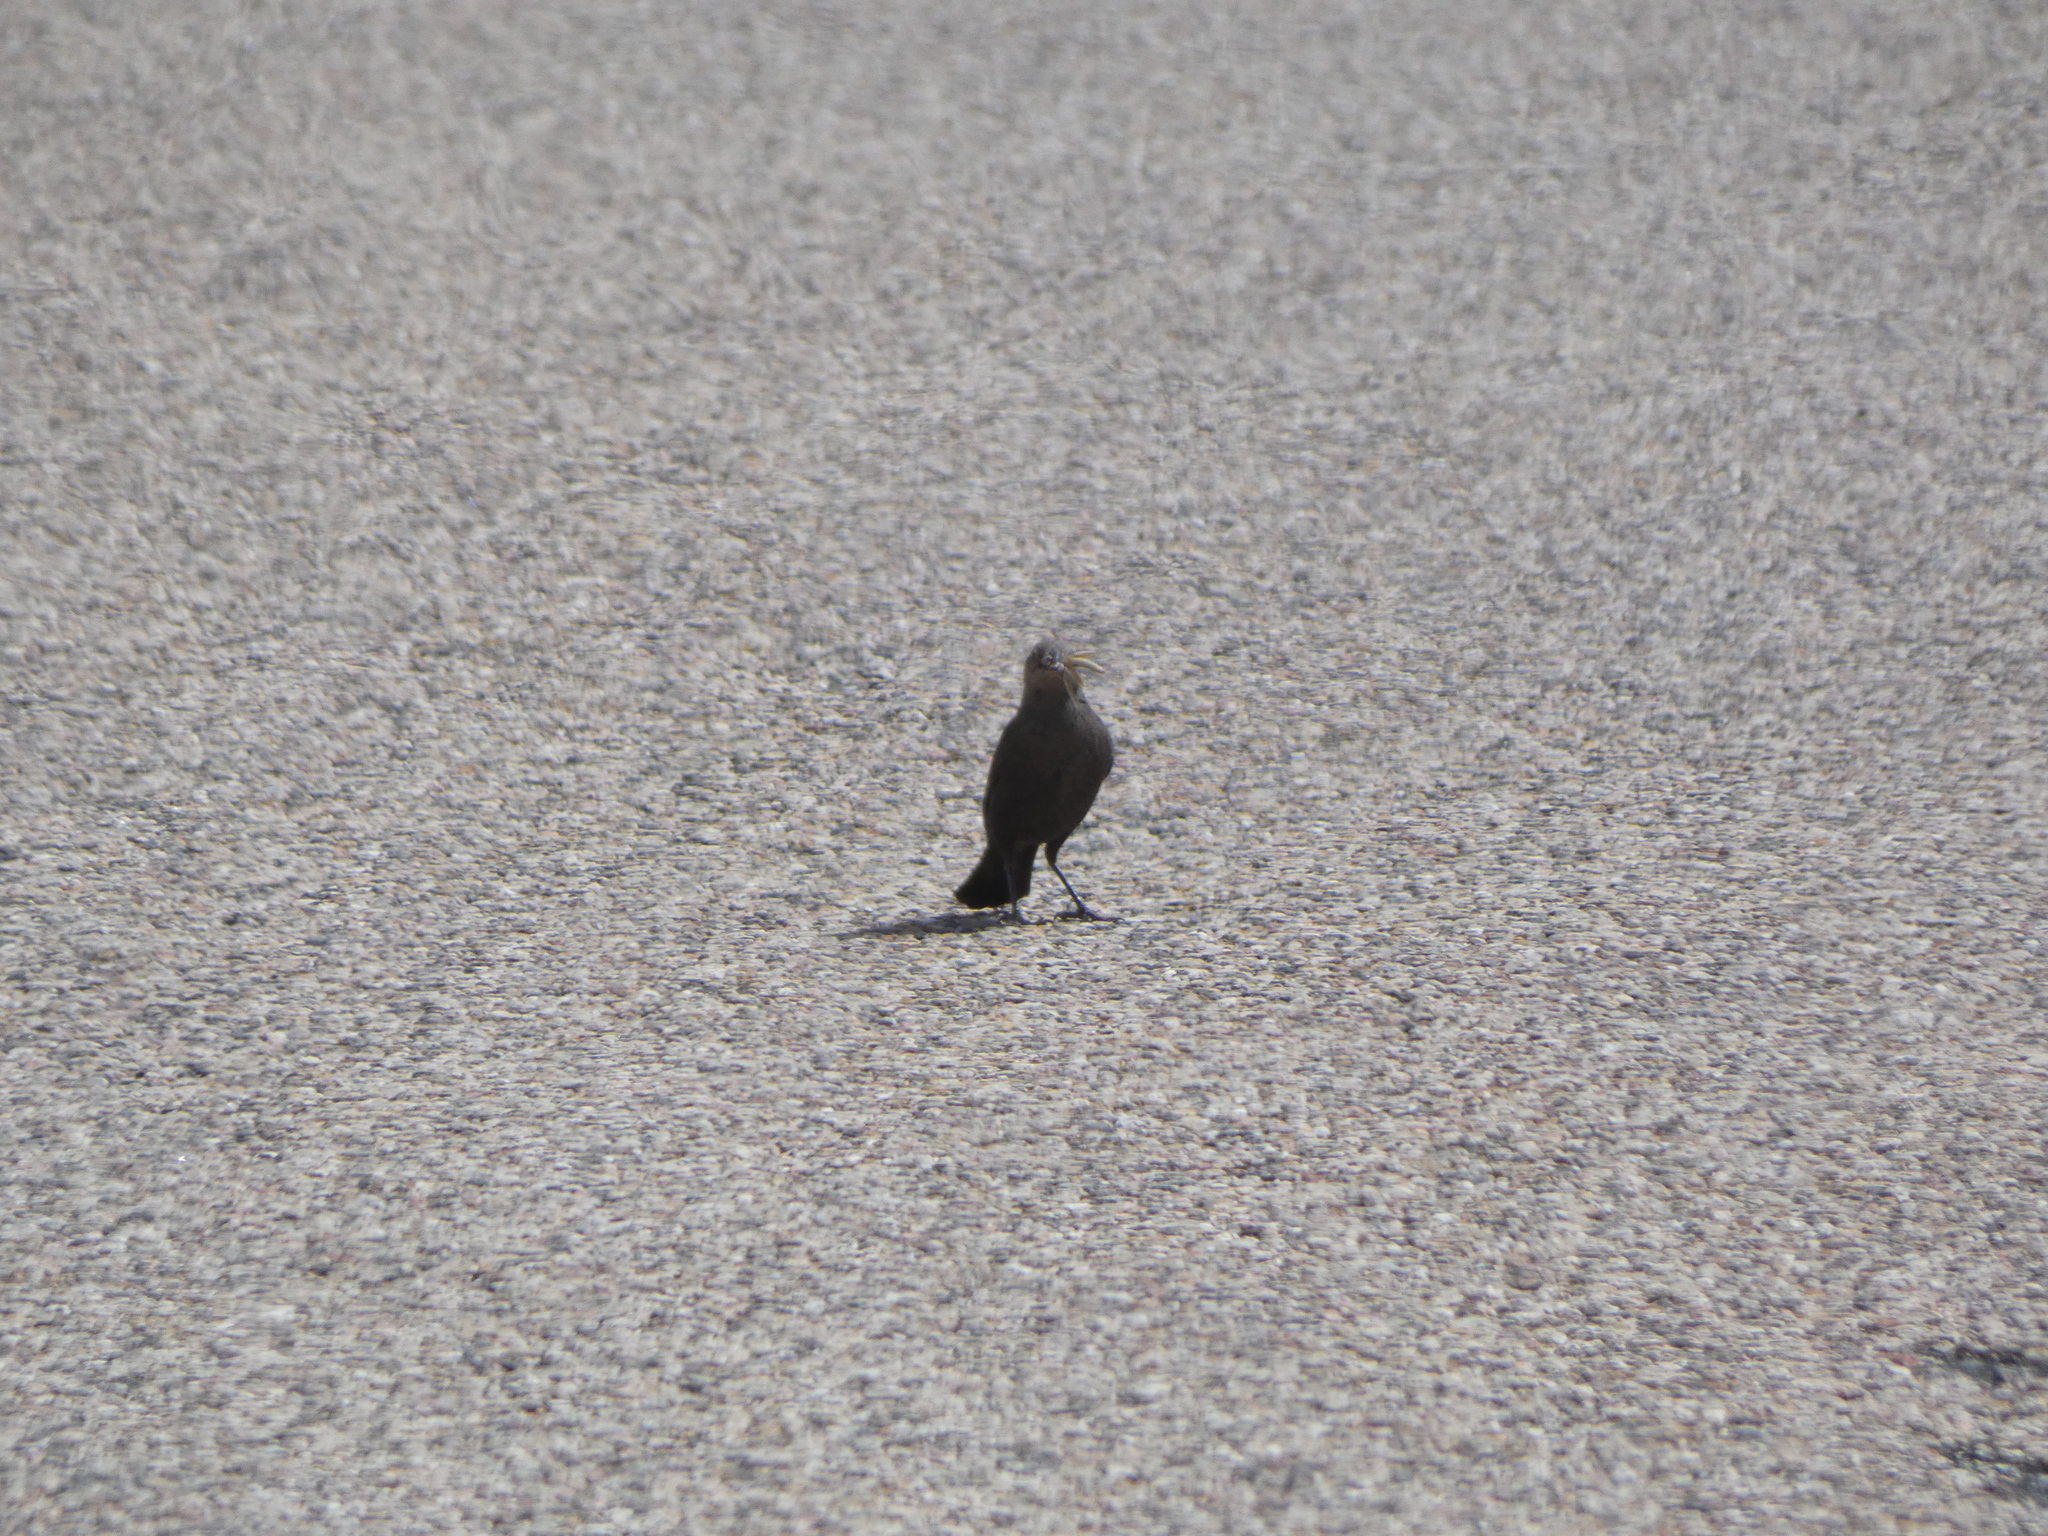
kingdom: Animalia
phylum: Chordata
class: Aves
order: Passeriformes
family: Icteridae
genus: Euphagus
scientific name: Euphagus cyanocephalus
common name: Brewer's blackbird
